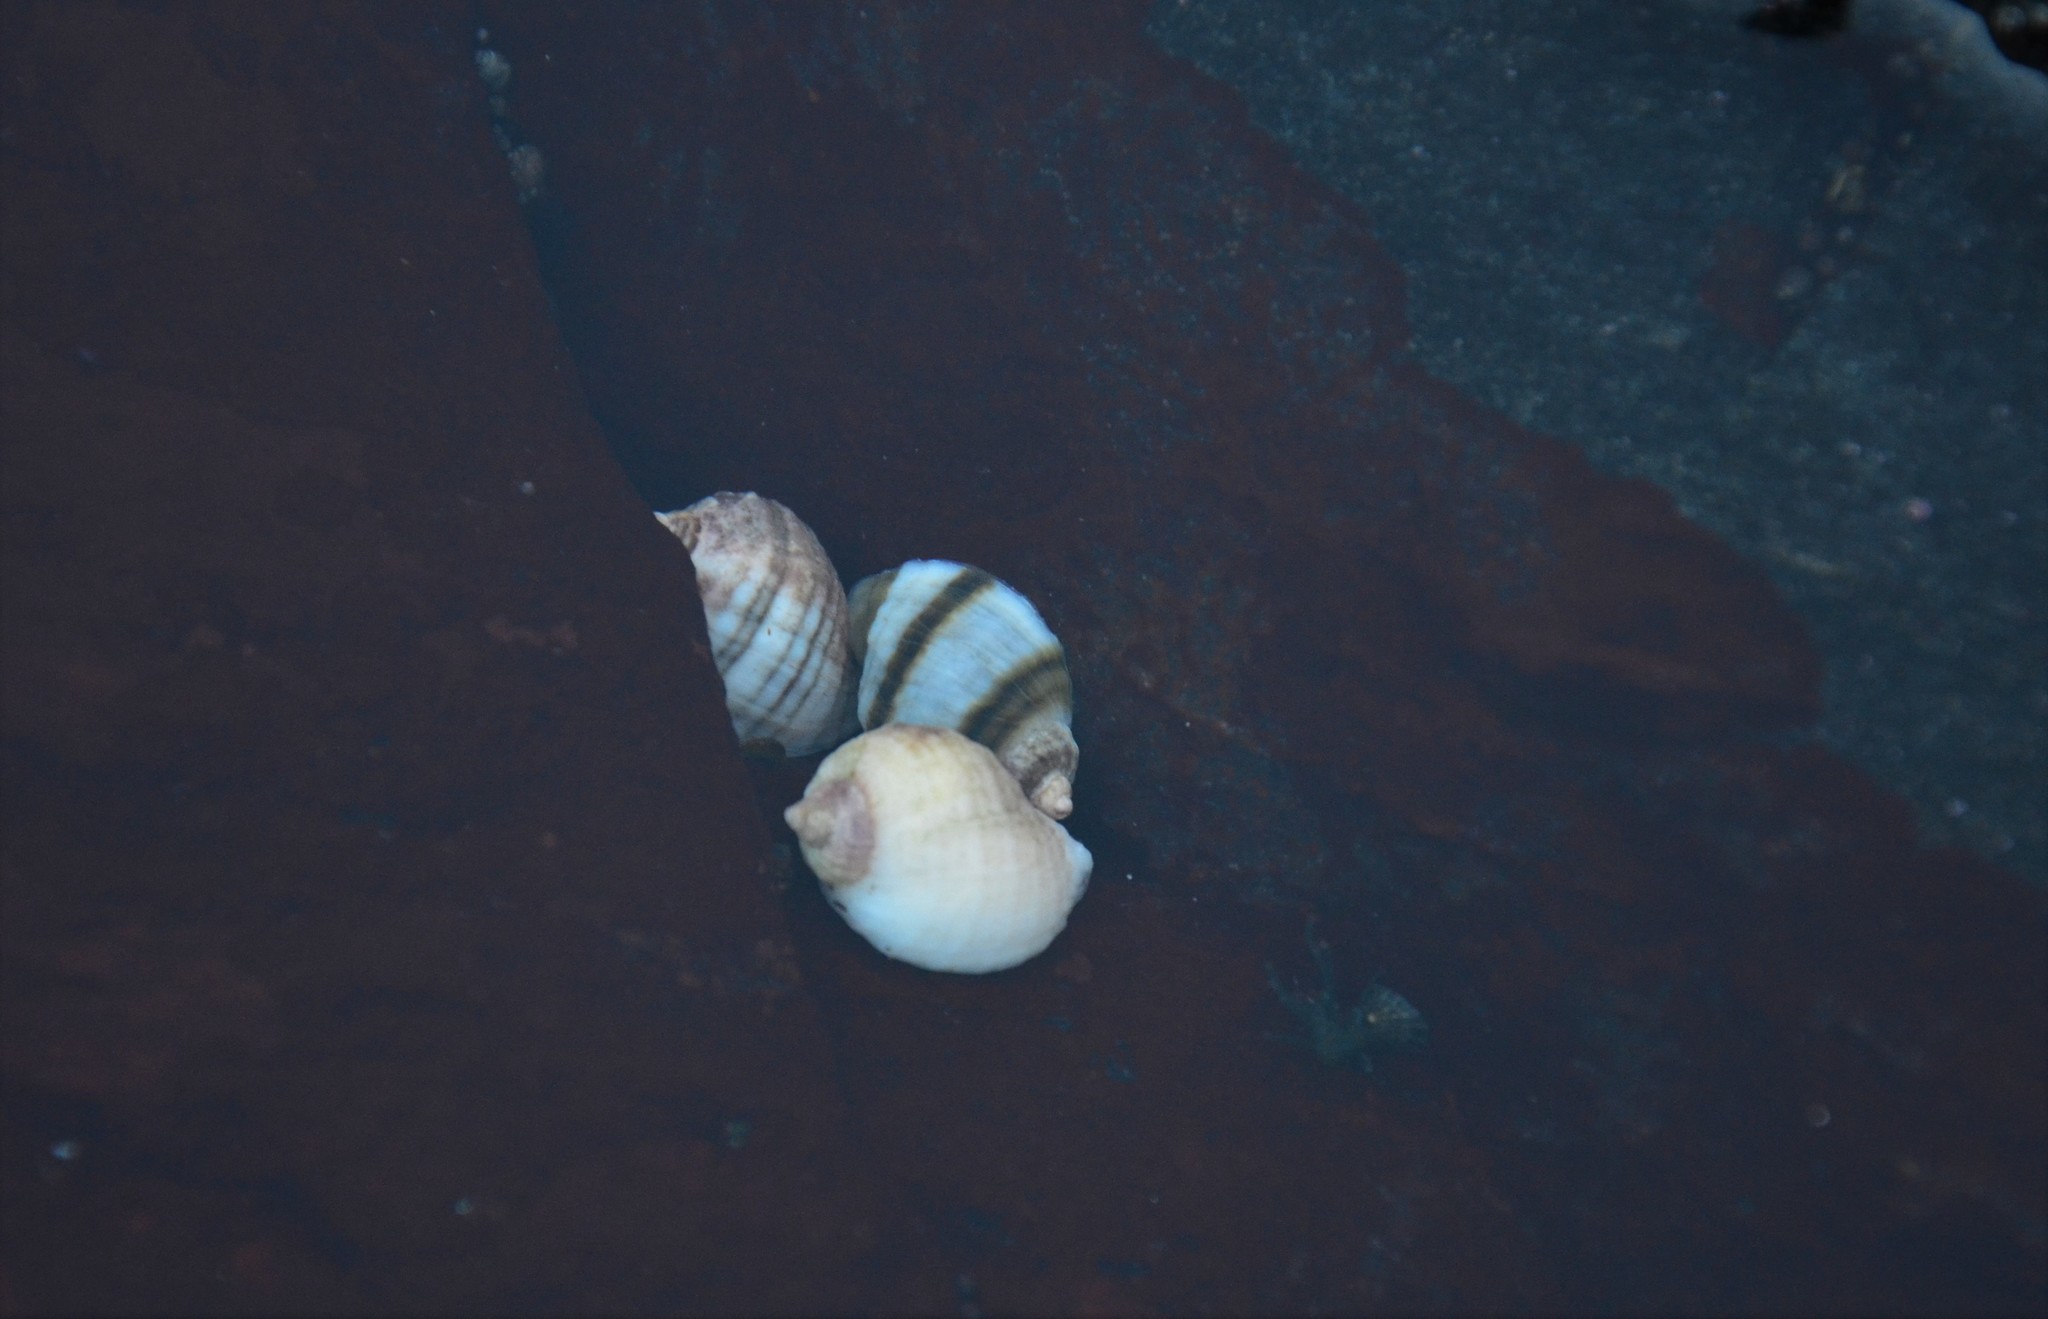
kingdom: Animalia
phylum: Mollusca
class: Gastropoda
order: Neogastropoda
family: Muricidae
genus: Nucella
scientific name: Nucella lapillus
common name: Dog whelk
